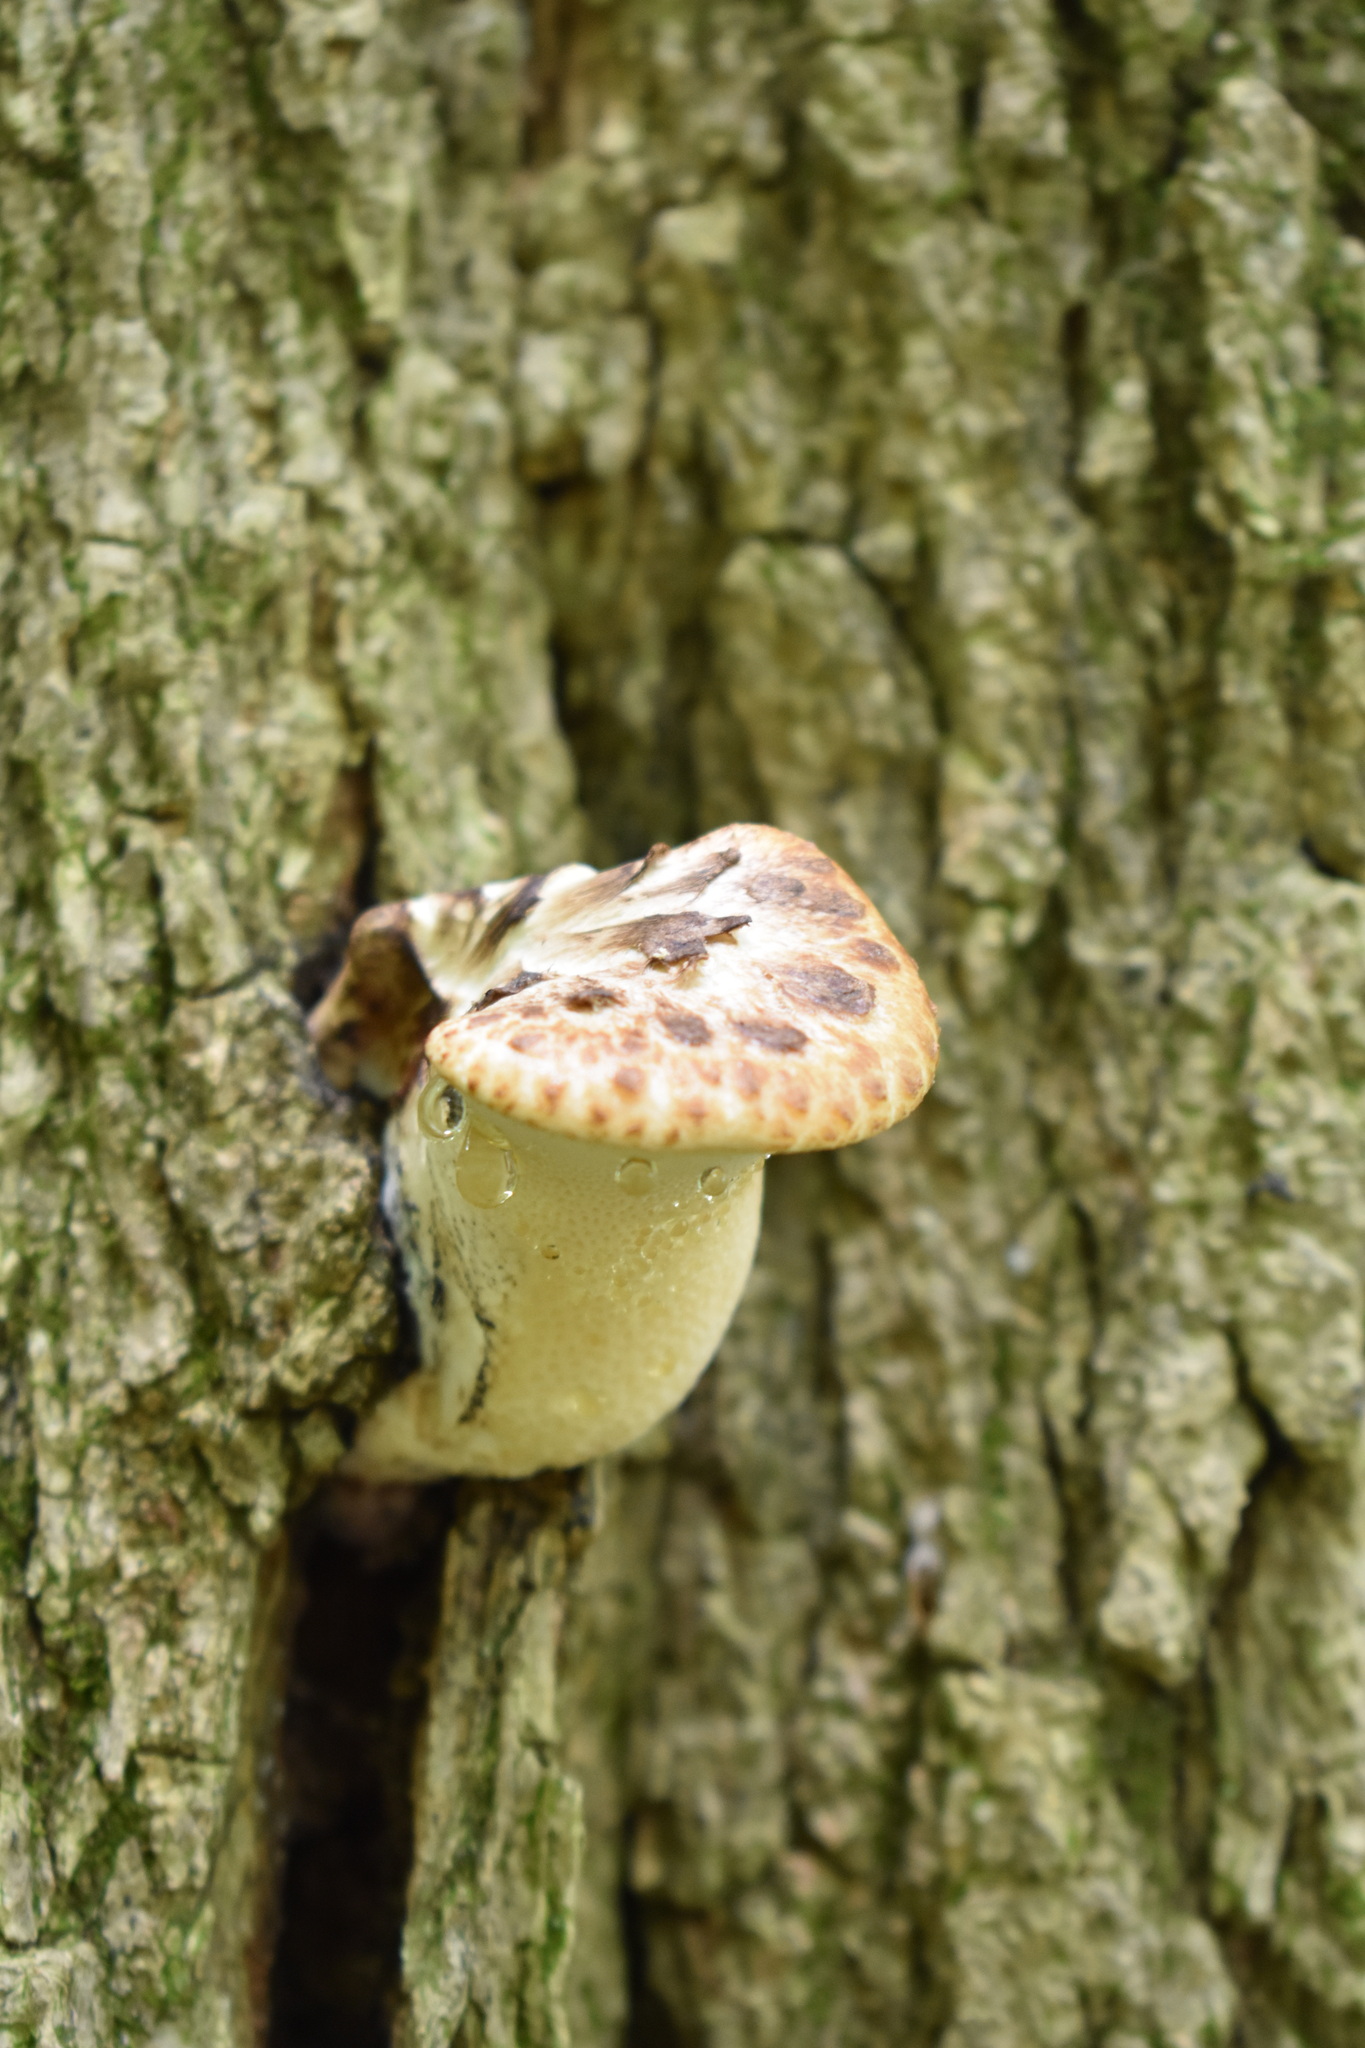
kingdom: Fungi
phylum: Basidiomycota
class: Agaricomycetes
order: Polyporales
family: Polyporaceae
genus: Cerioporus
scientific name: Cerioporus squamosus
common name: Dryad's saddle
